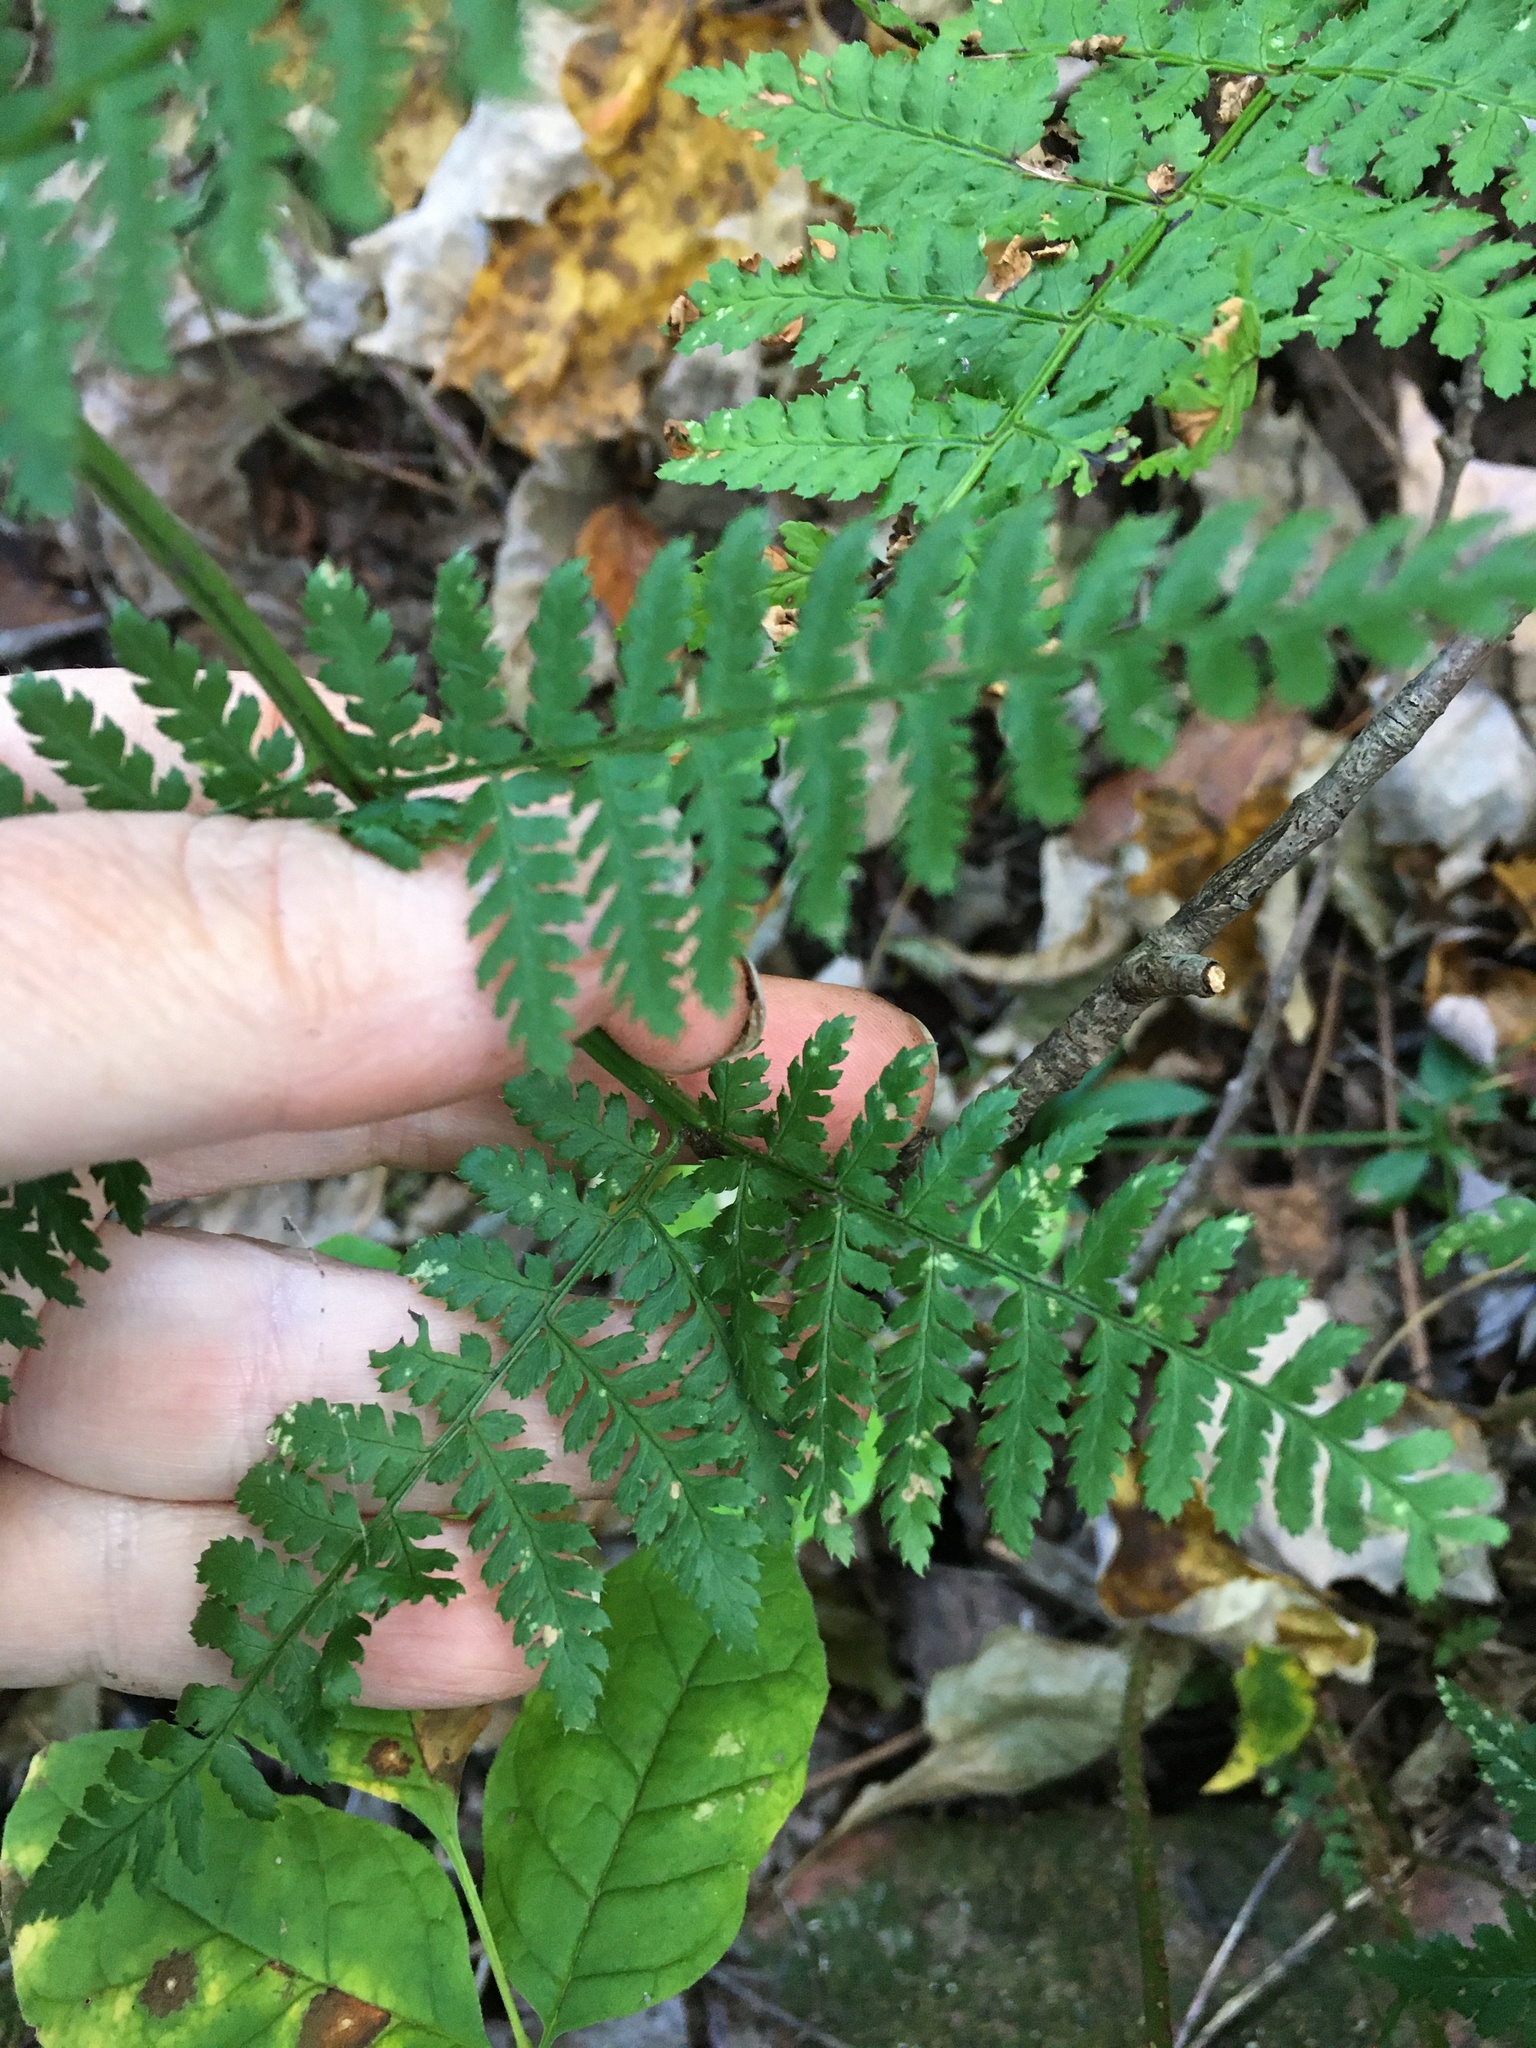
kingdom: Plantae
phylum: Tracheophyta
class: Polypodiopsida
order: Polypodiales
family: Dryopteridaceae
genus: Dryopteris
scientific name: Dryopteris intermedia
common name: Evergreen wood fern
